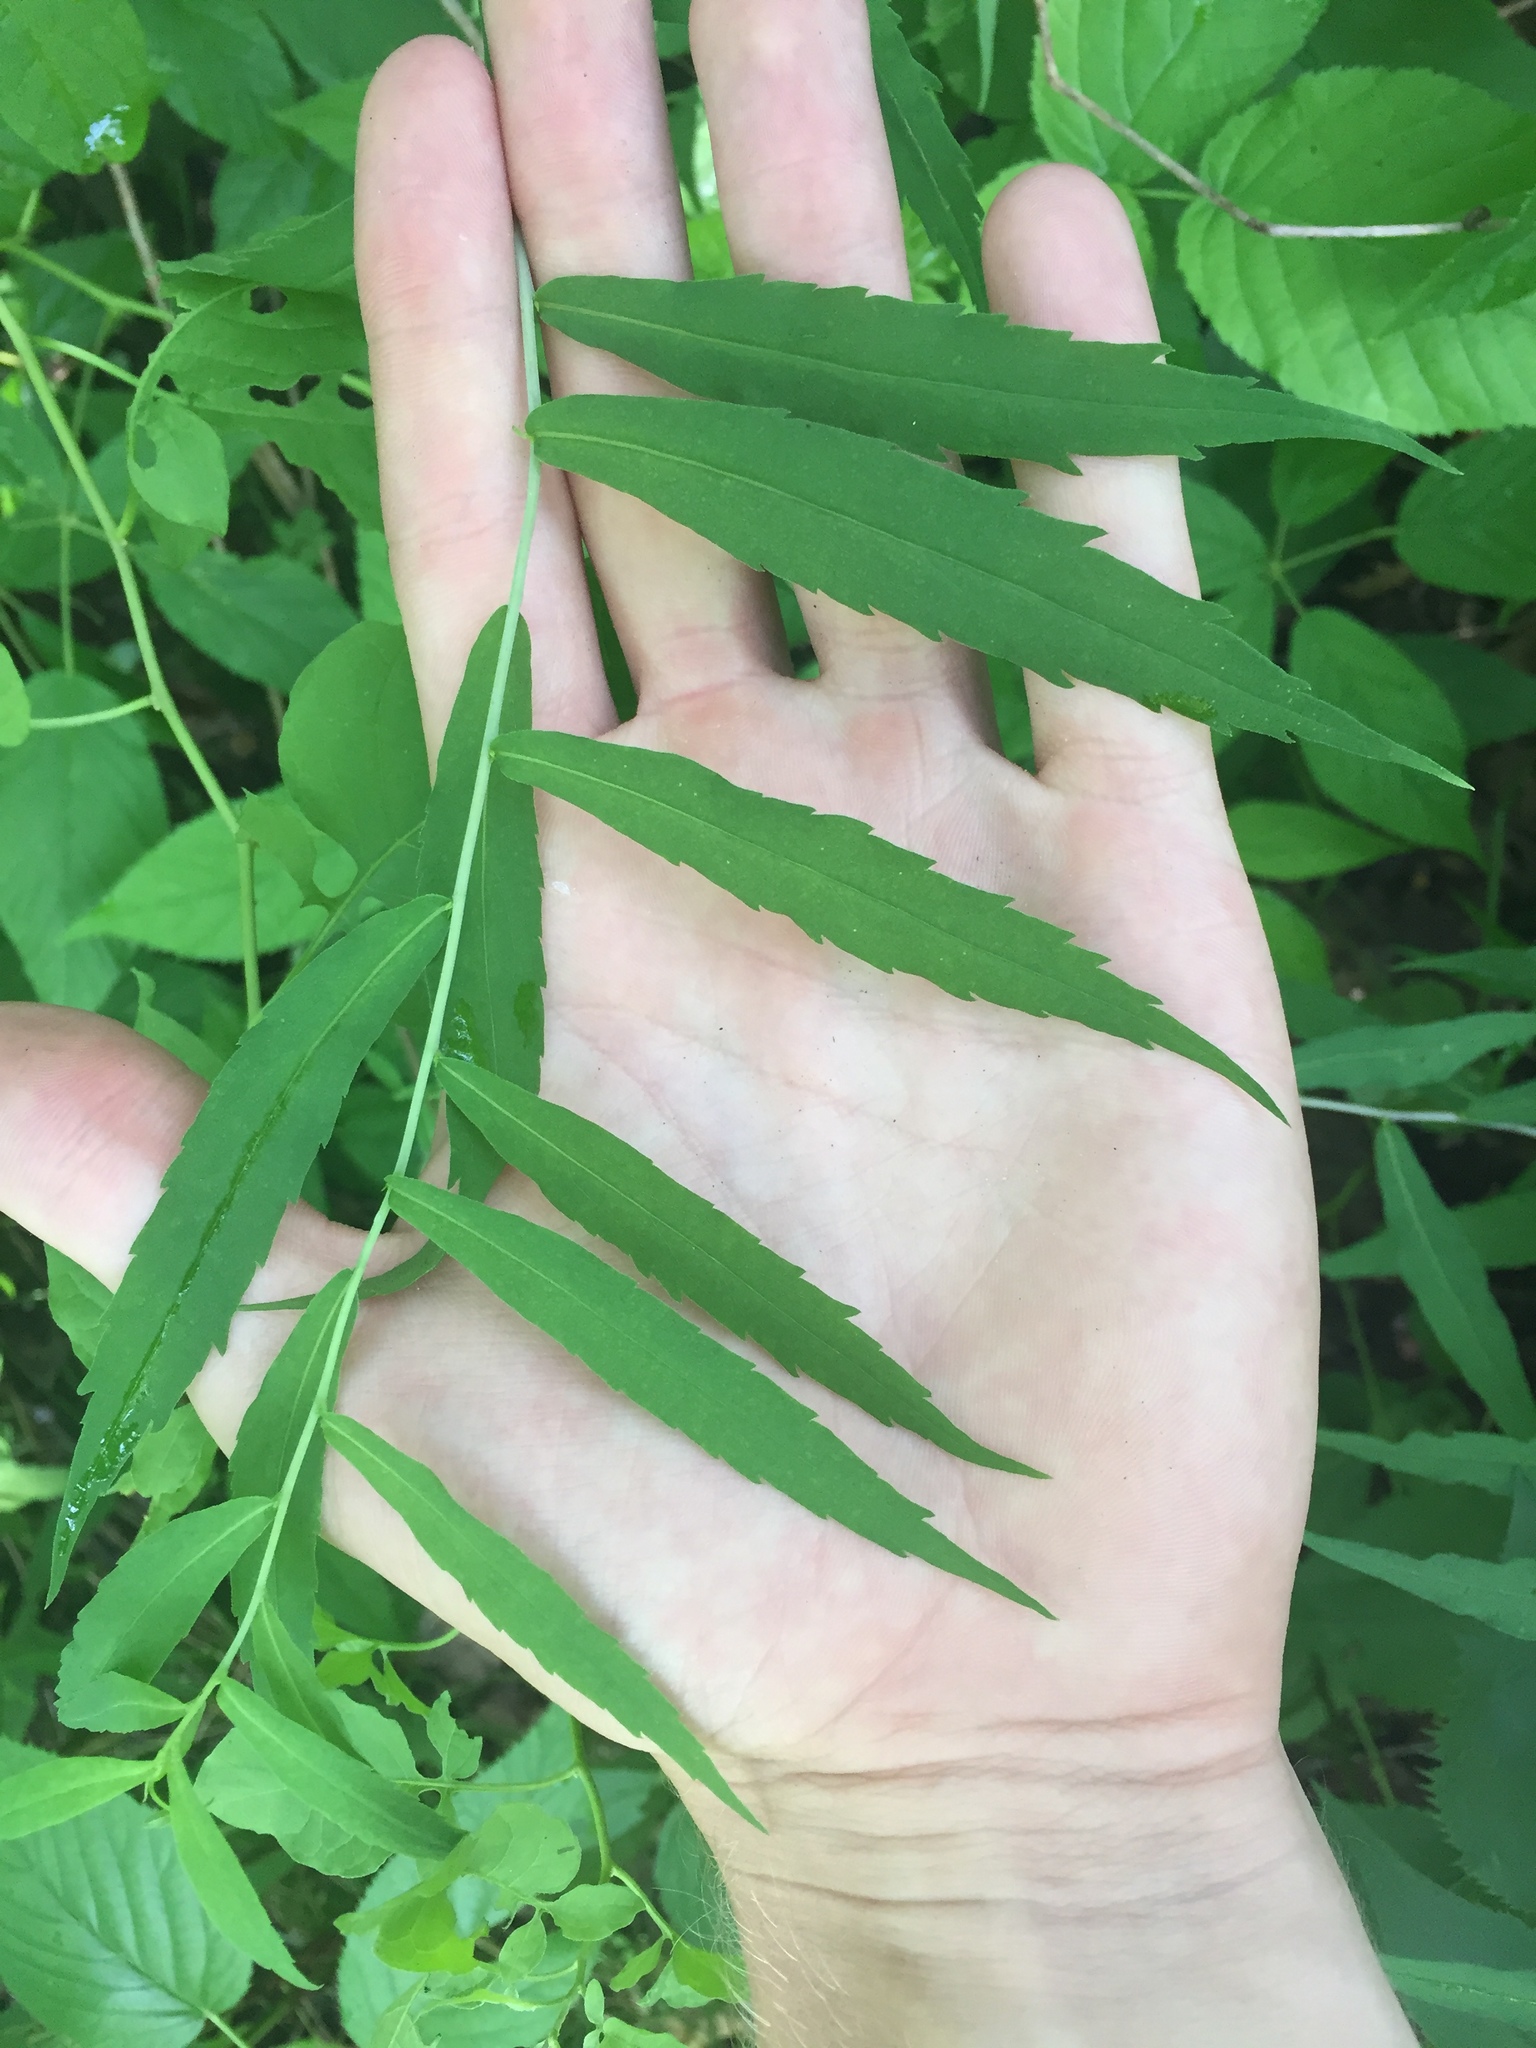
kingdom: Plantae
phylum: Tracheophyta
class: Magnoliopsida
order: Asterales
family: Asteraceae
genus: Solidago
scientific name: Solidago caesia
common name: Woodland goldenrod
